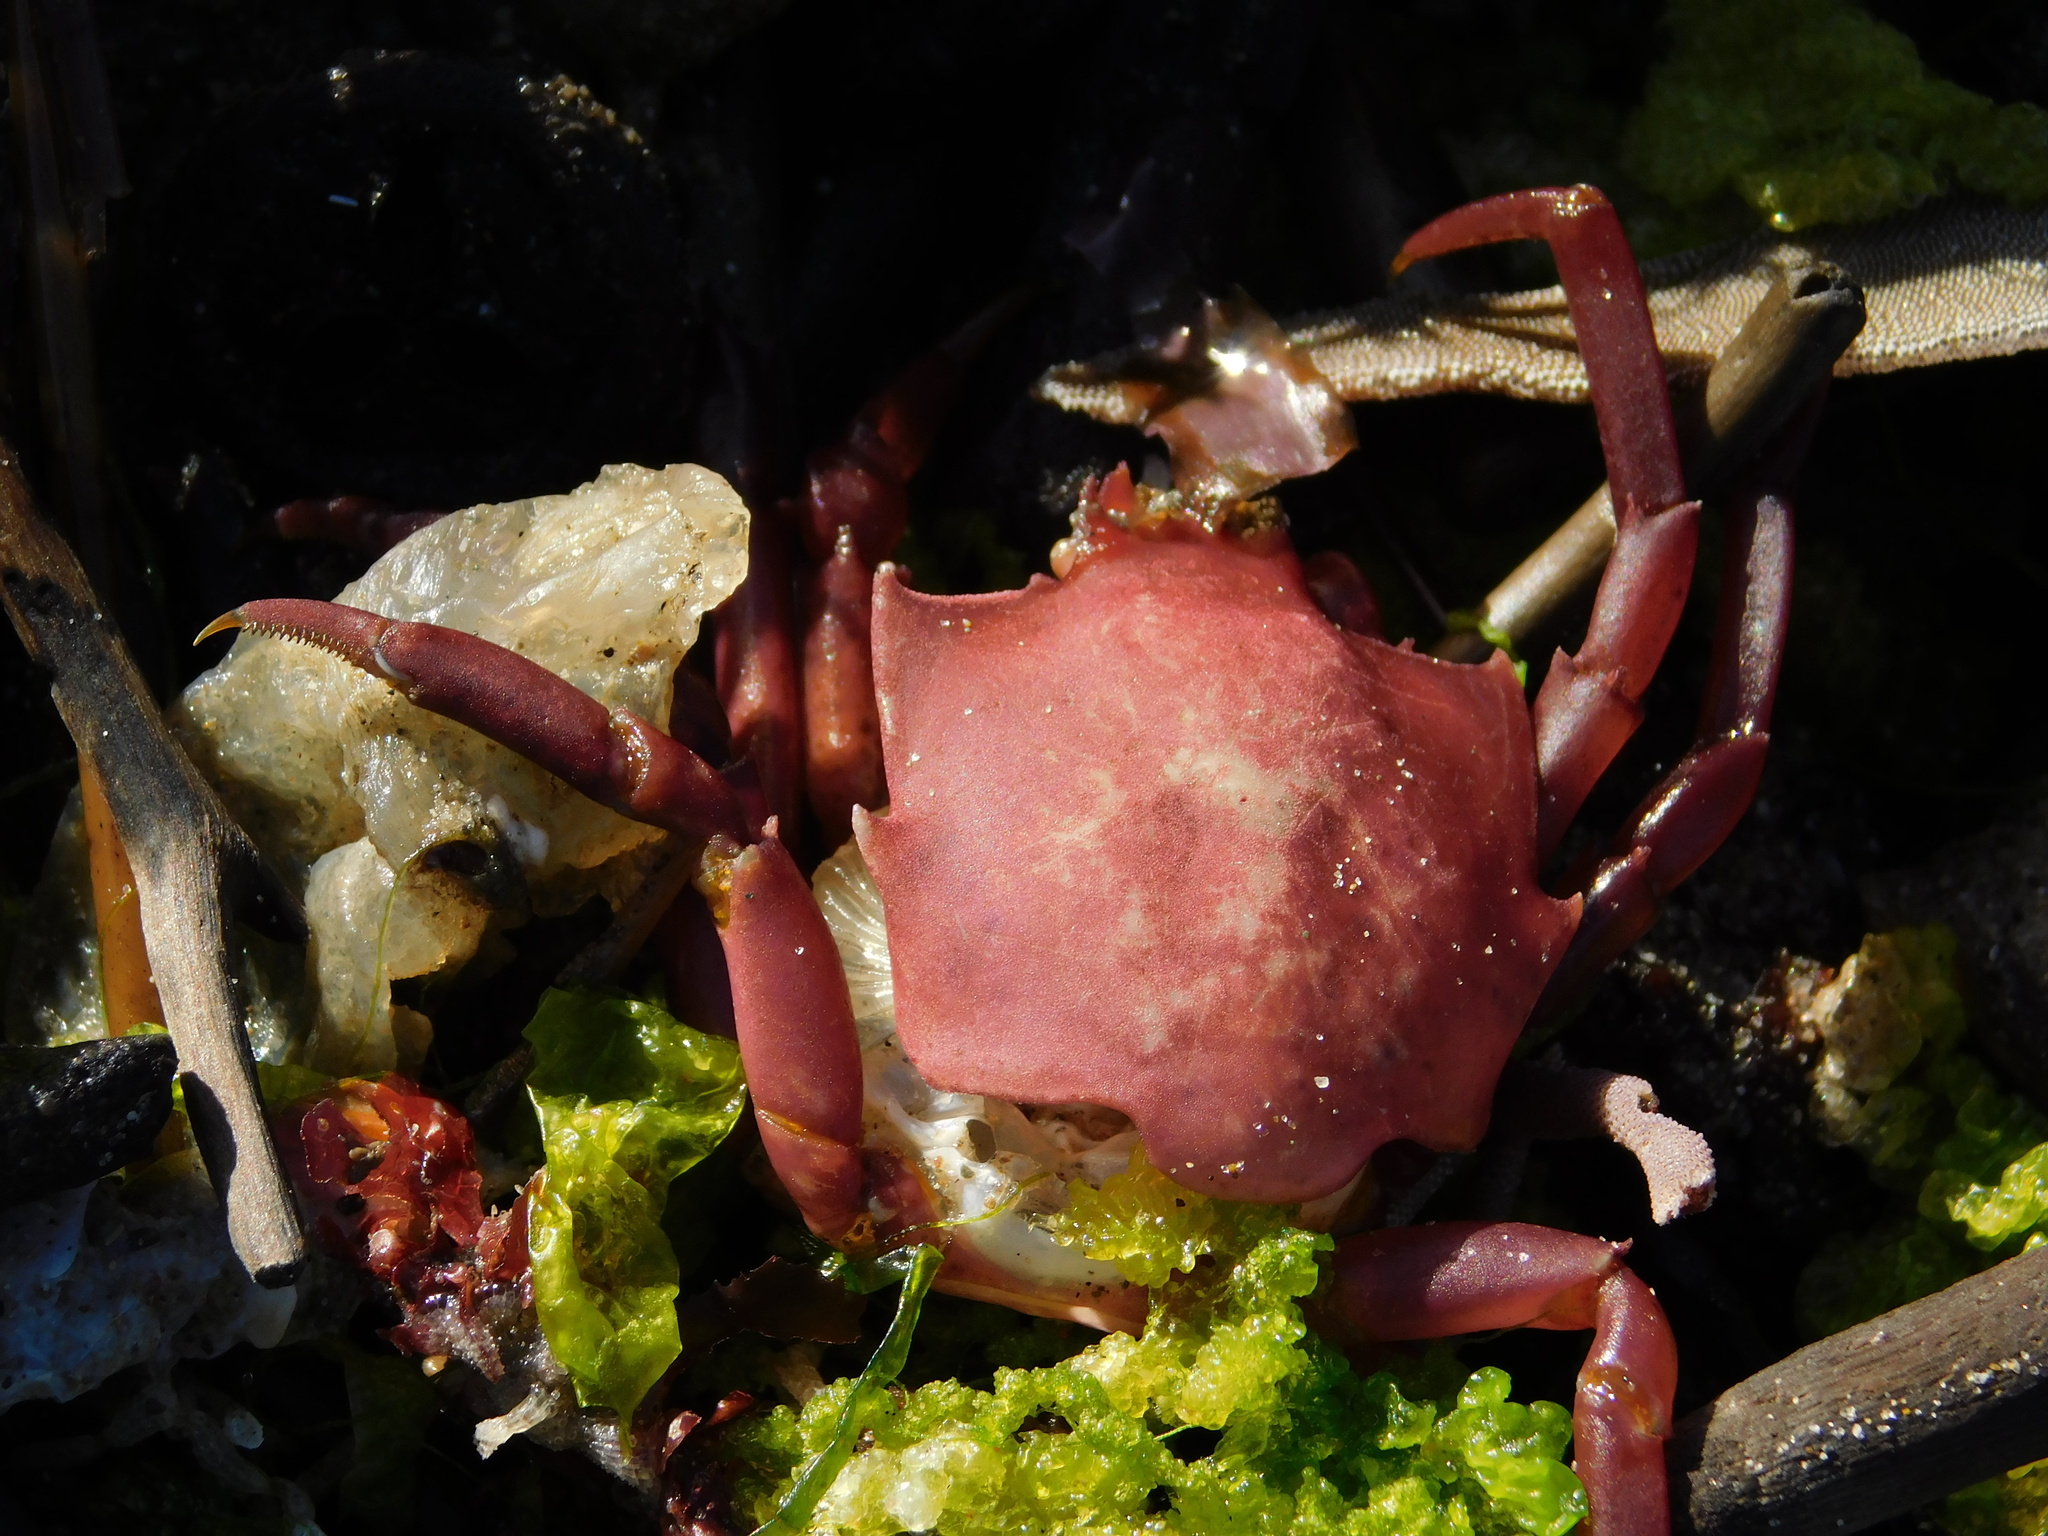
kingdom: Animalia
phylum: Arthropoda
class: Malacostraca
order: Decapoda
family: Epialtidae
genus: Pugettia
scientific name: Pugettia producta
